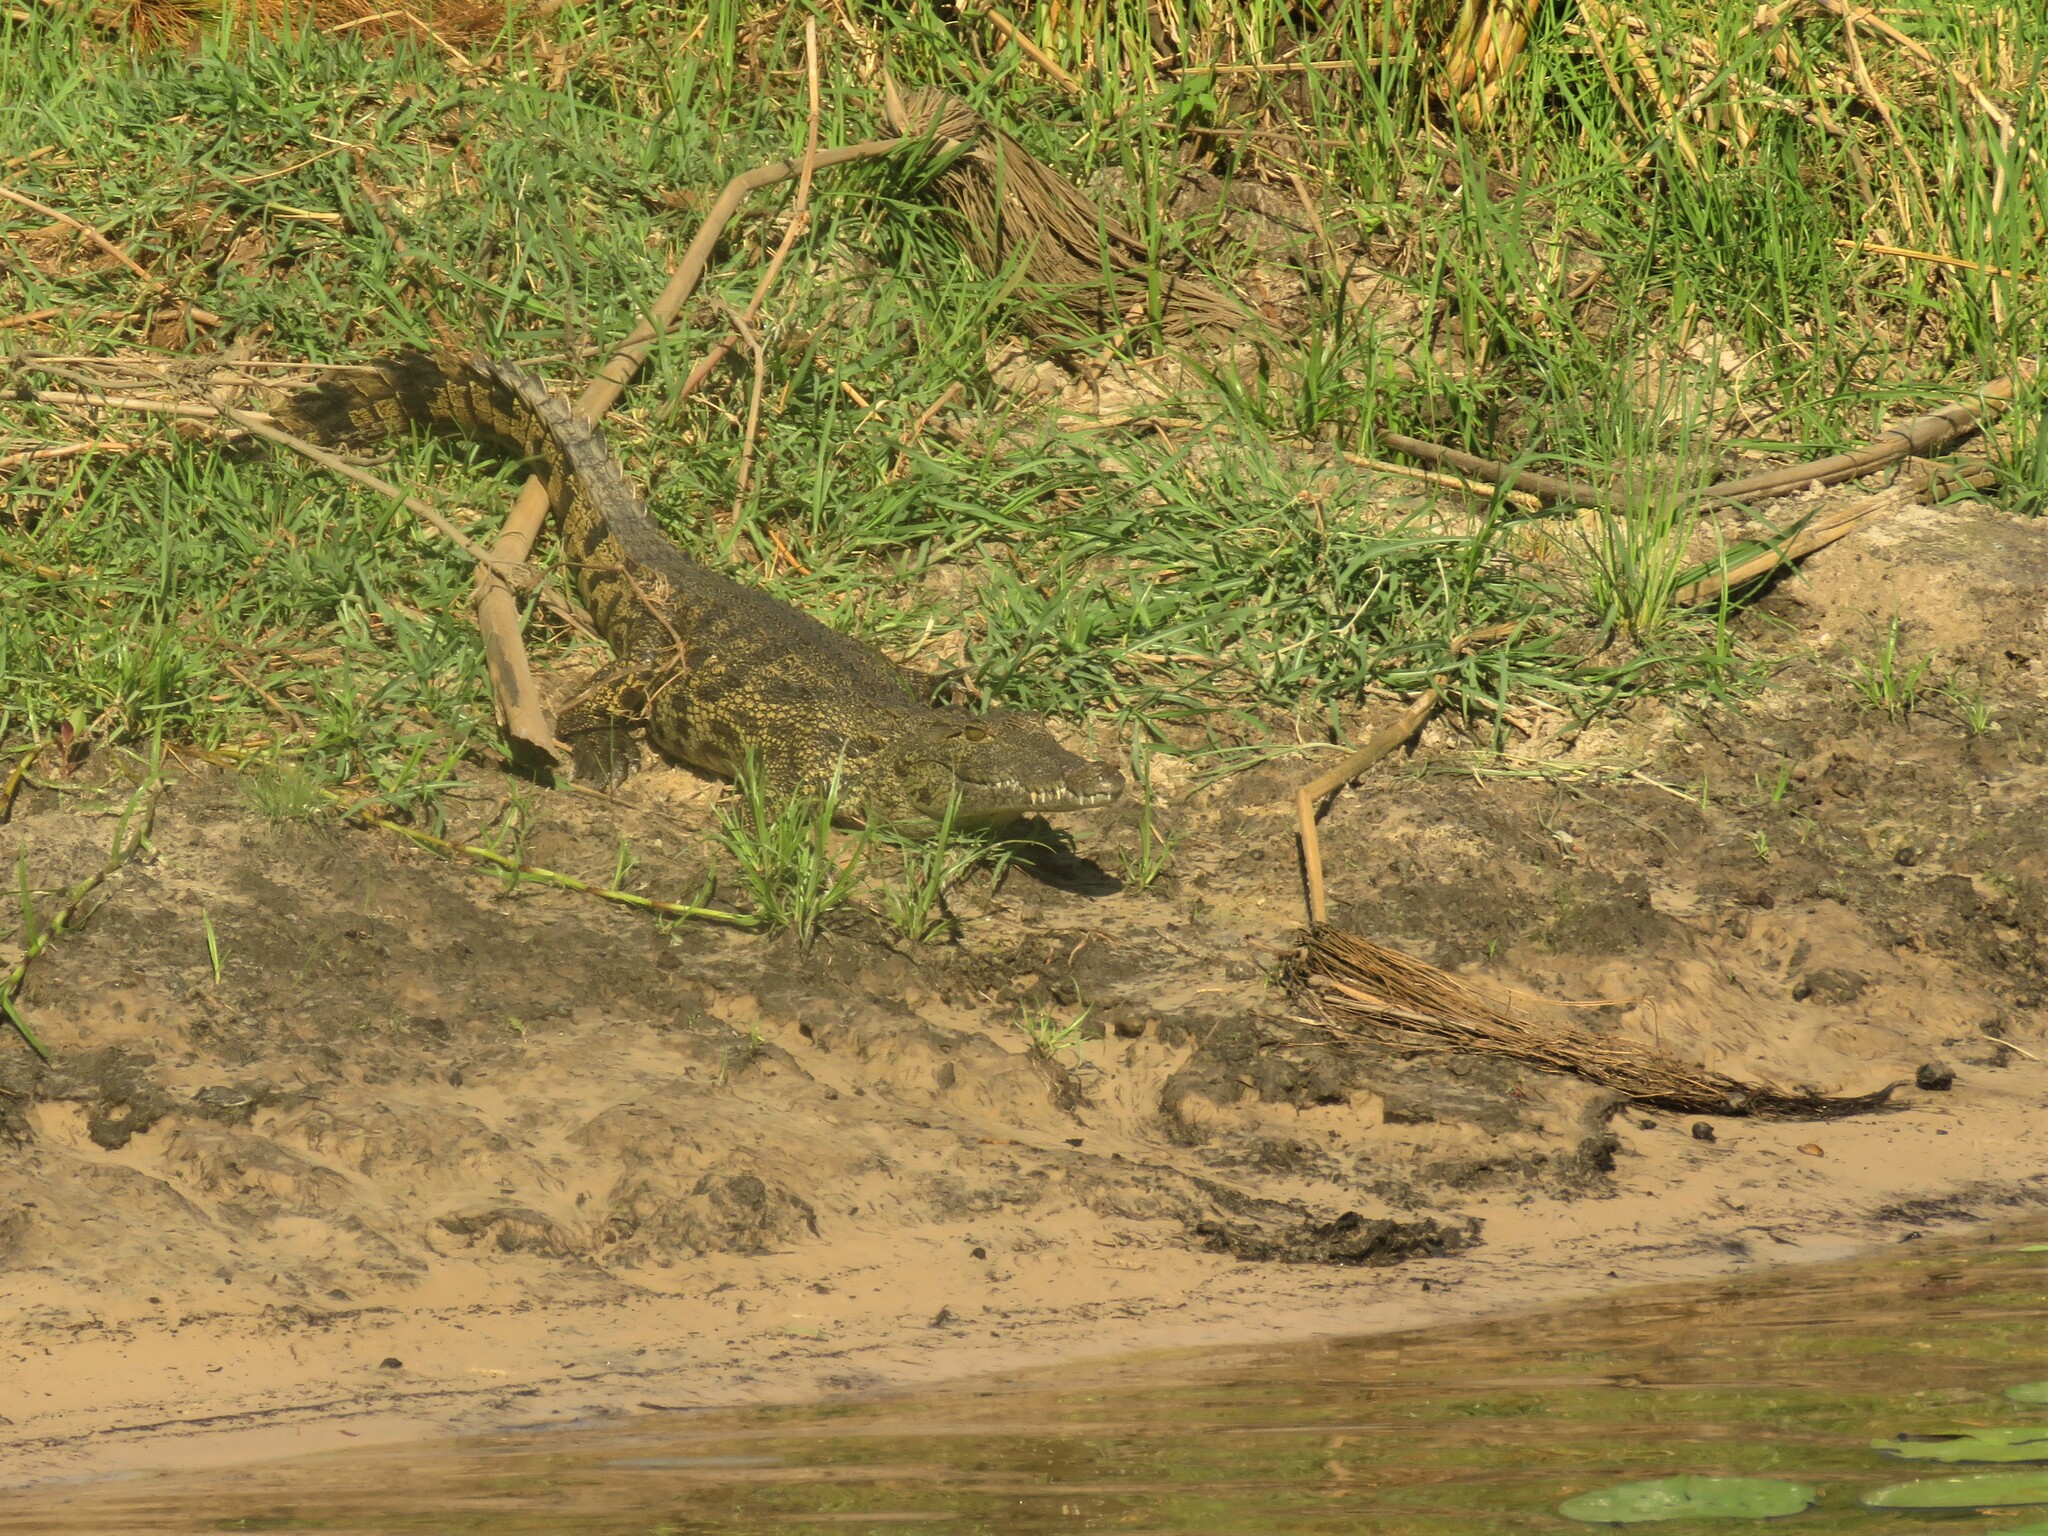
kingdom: Animalia
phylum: Chordata
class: Crocodylia
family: Crocodylidae
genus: Crocodylus
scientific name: Crocodylus niloticus
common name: Nile crocodile
